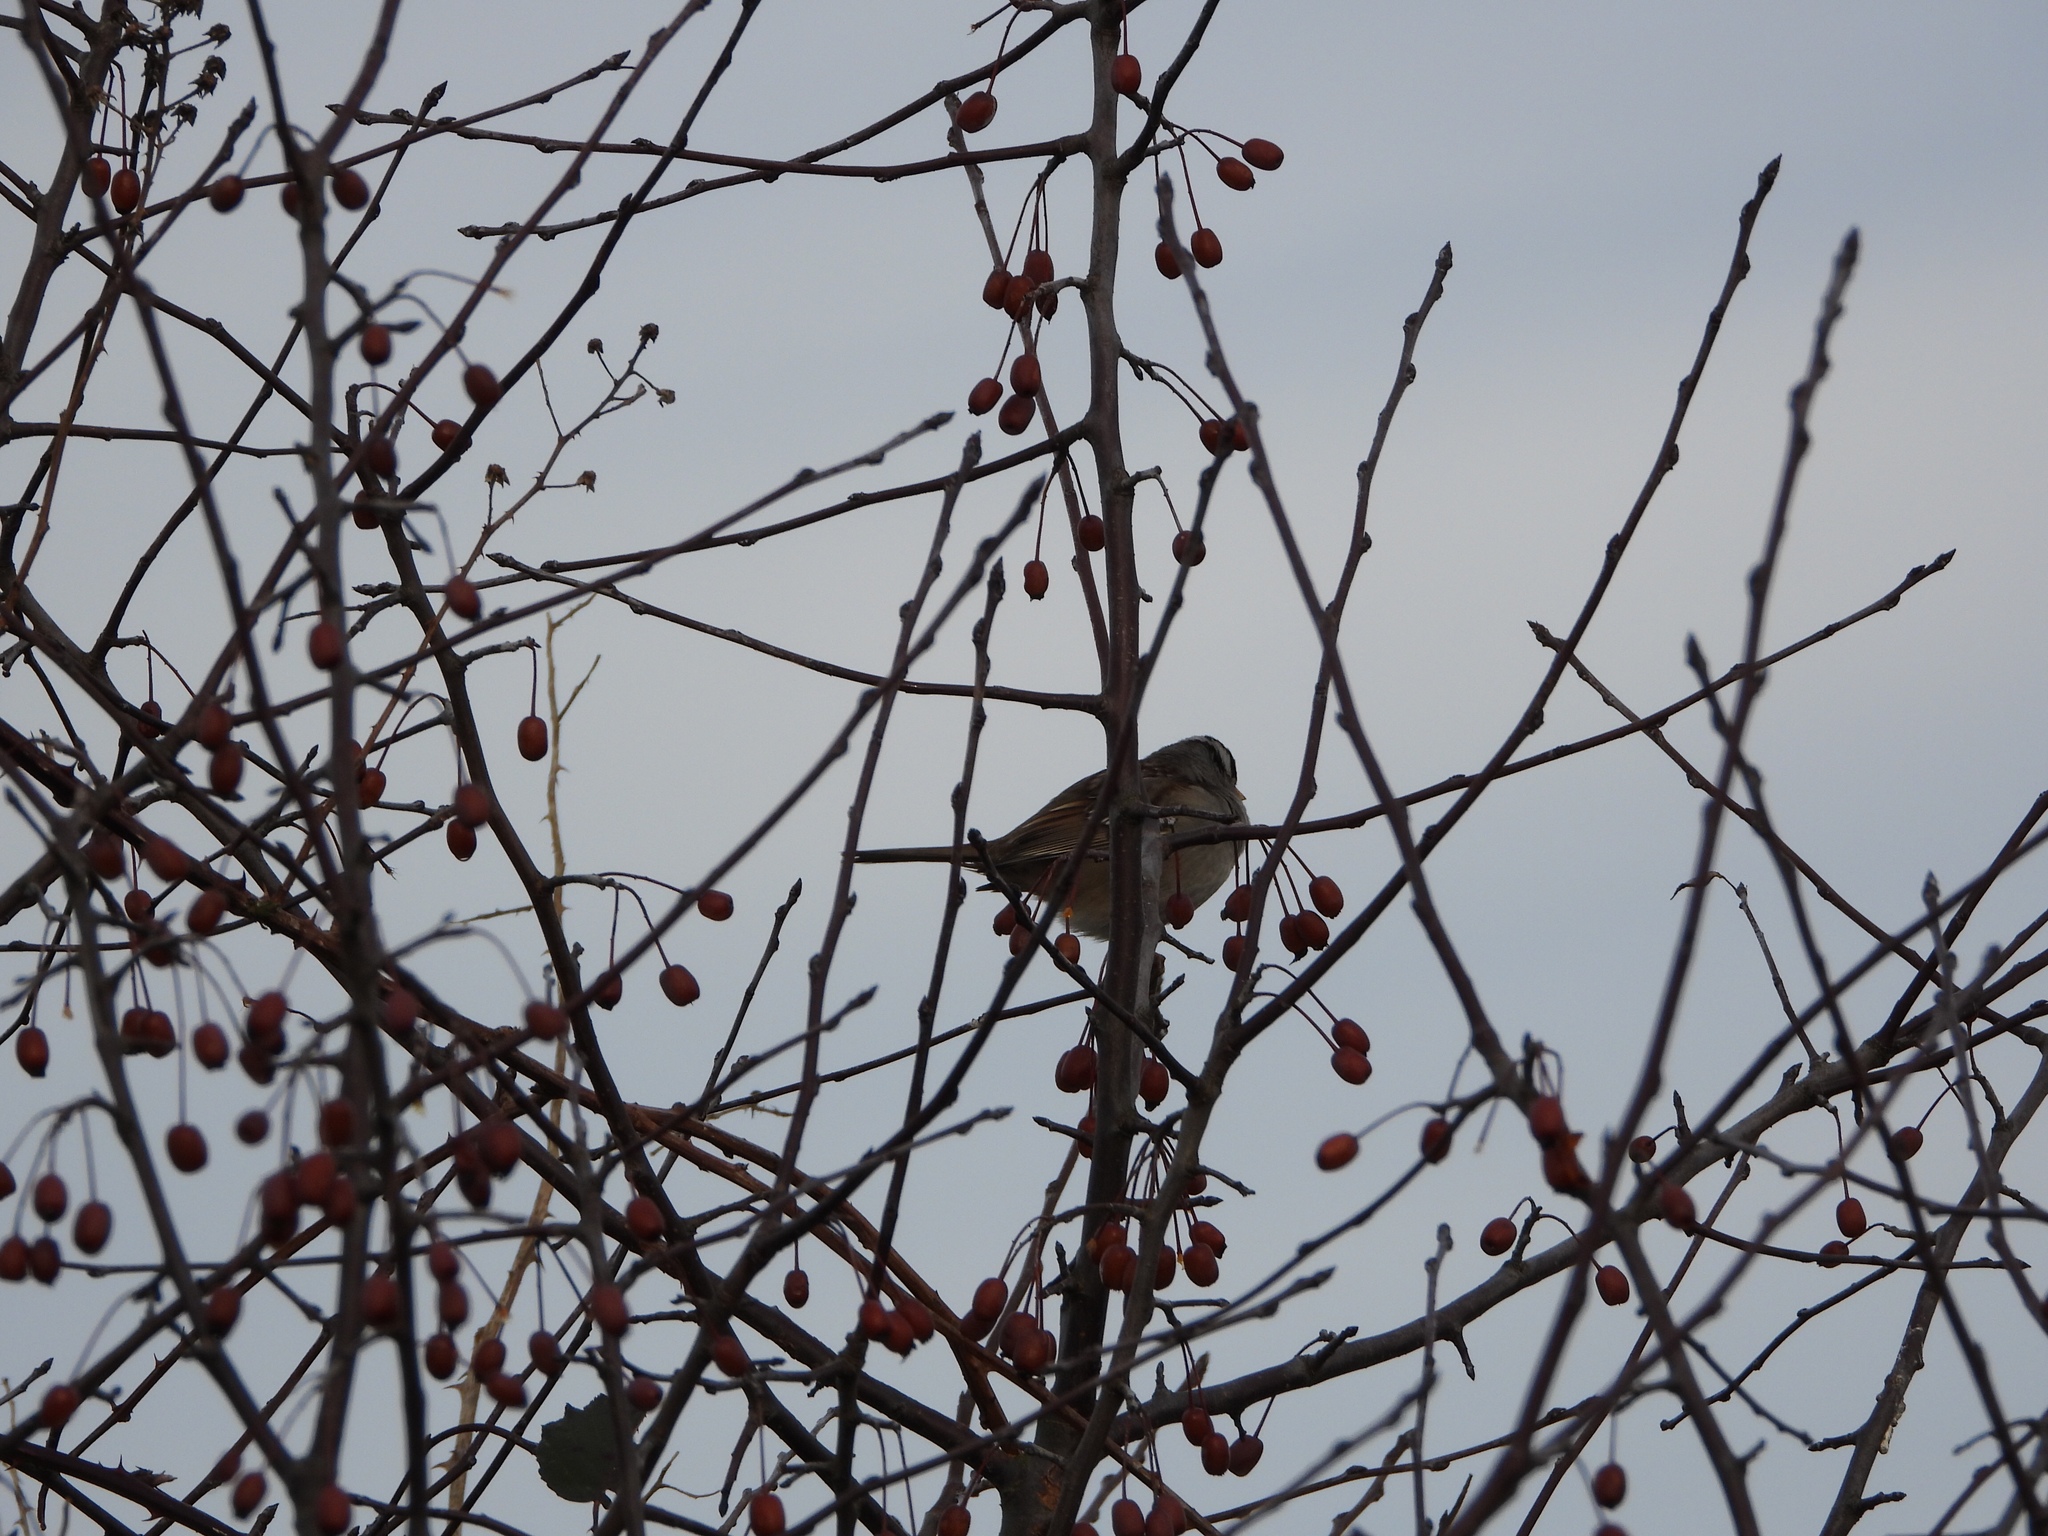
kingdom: Animalia
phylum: Chordata
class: Aves
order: Passeriformes
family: Passerellidae
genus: Zonotrichia
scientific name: Zonotrichia leucophrys
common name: White-crowned sparrow
